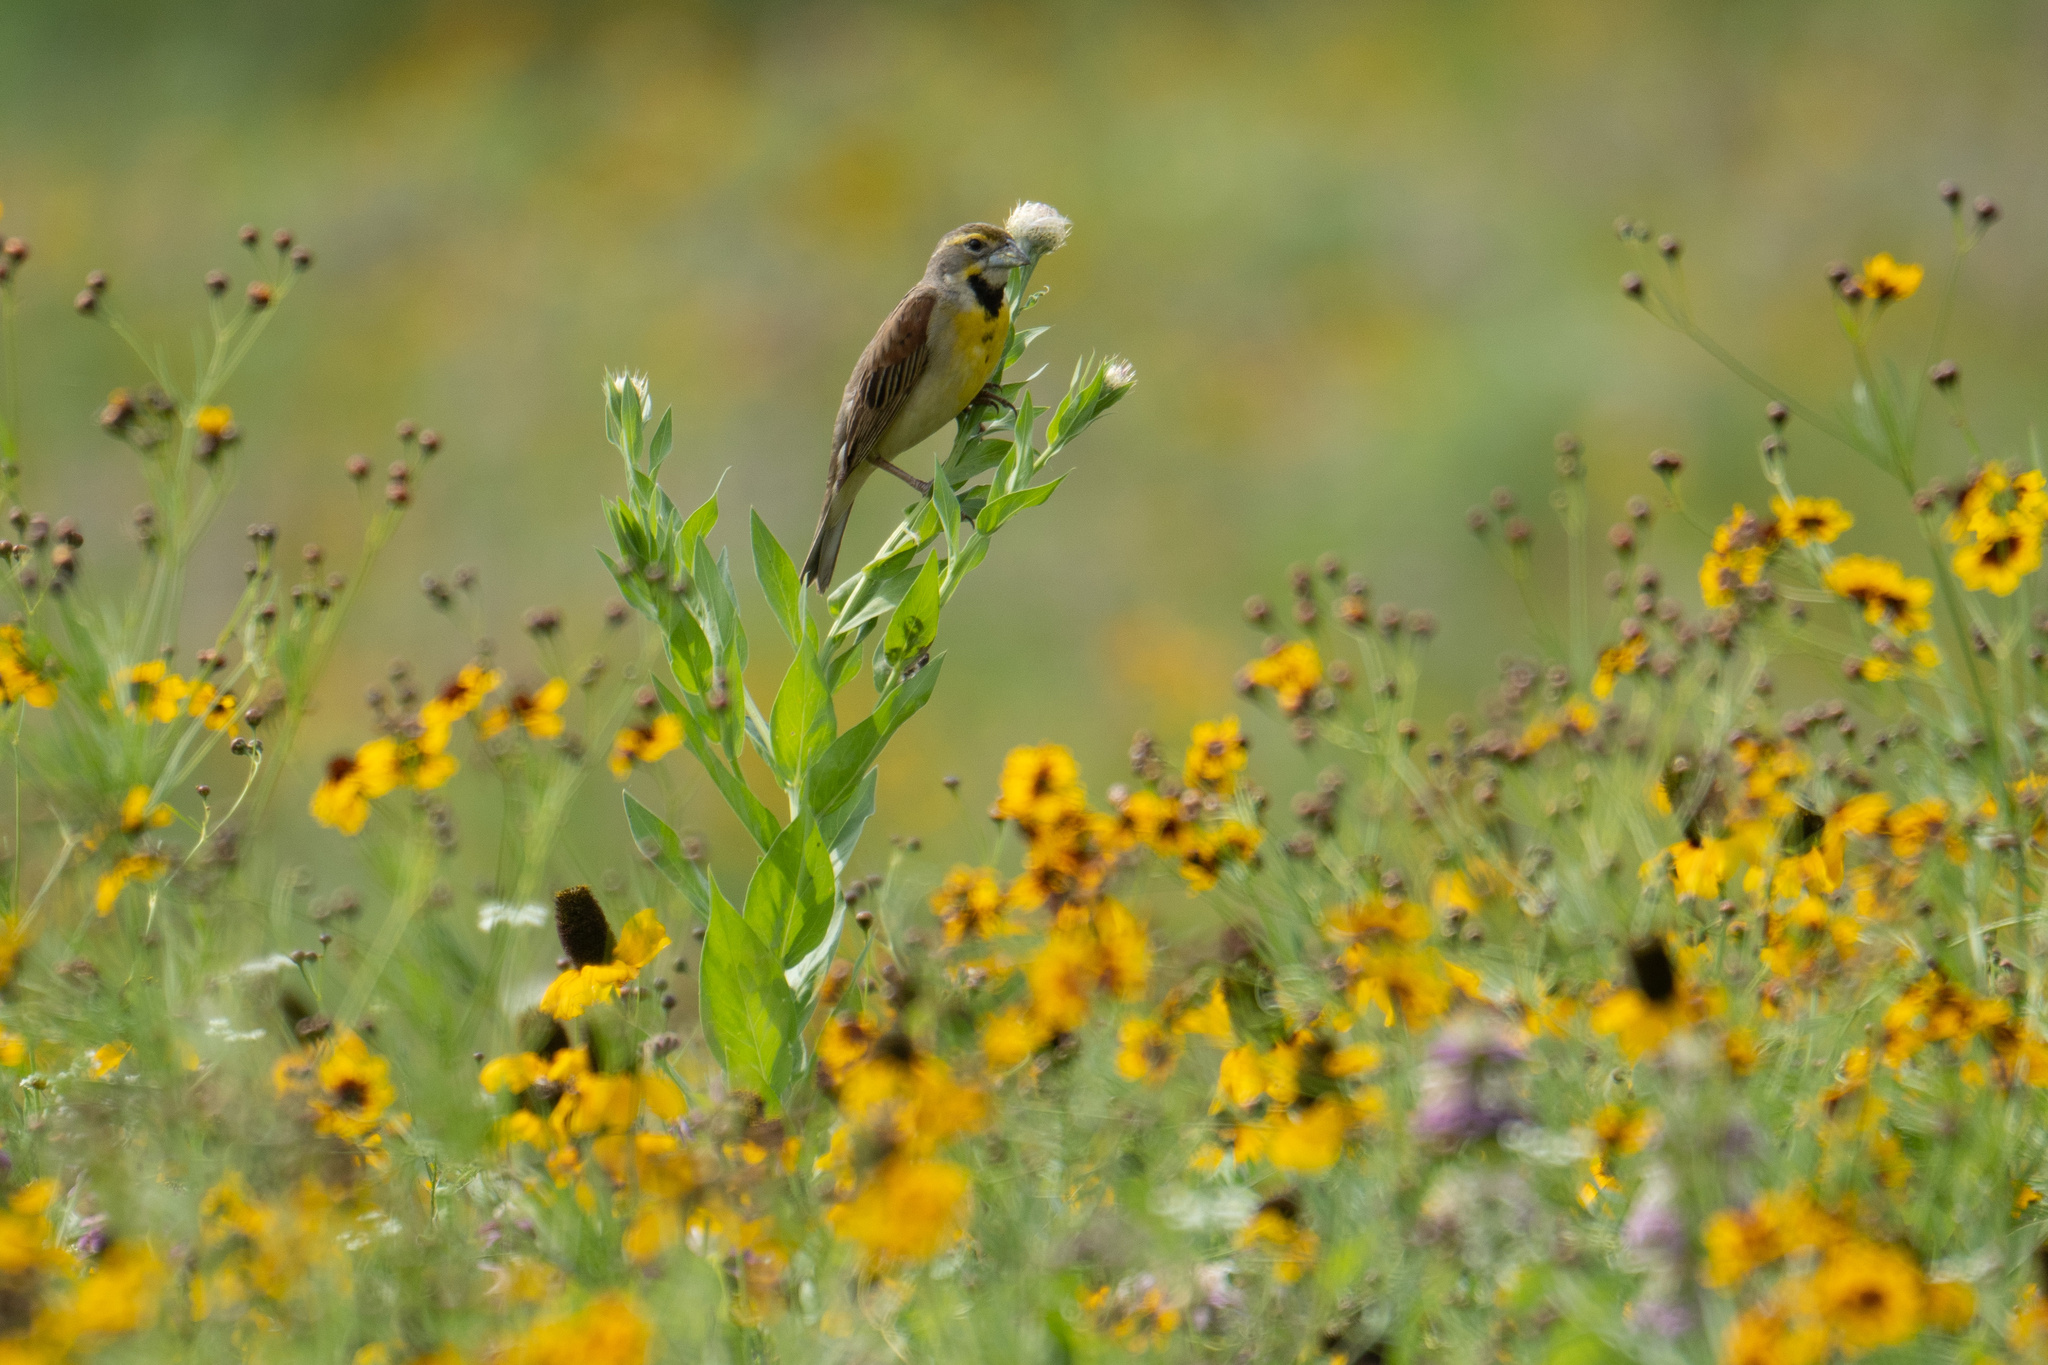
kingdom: Animalia
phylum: Chordata
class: Aves
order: Passeriformes
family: Cardinalidae
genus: Spiza
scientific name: Spiza americana
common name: Dickcissel
